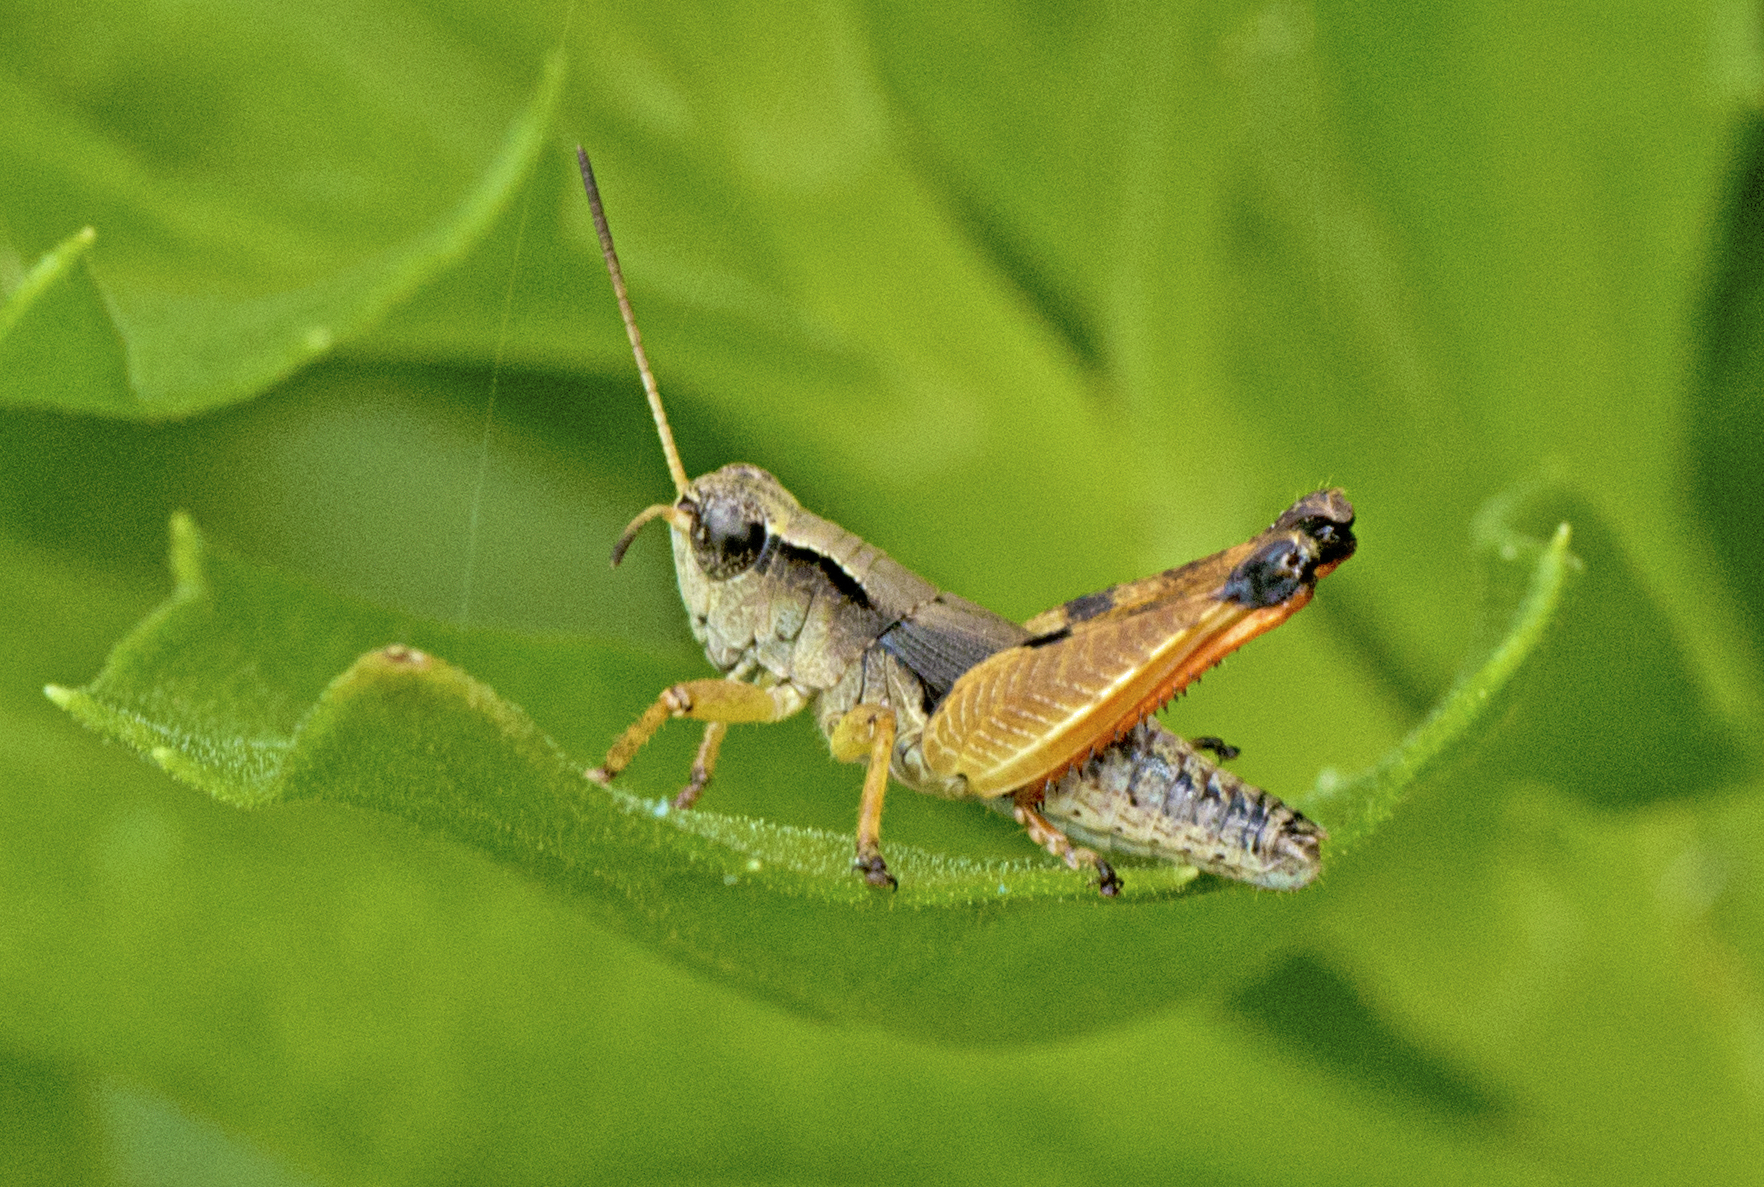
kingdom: Animalia
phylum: Arthropoda
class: Insecta
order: Orthoptera
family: Acrididae
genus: Phaulacridium
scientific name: Phaulacridium vittatum
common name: Wingless grasshopper
